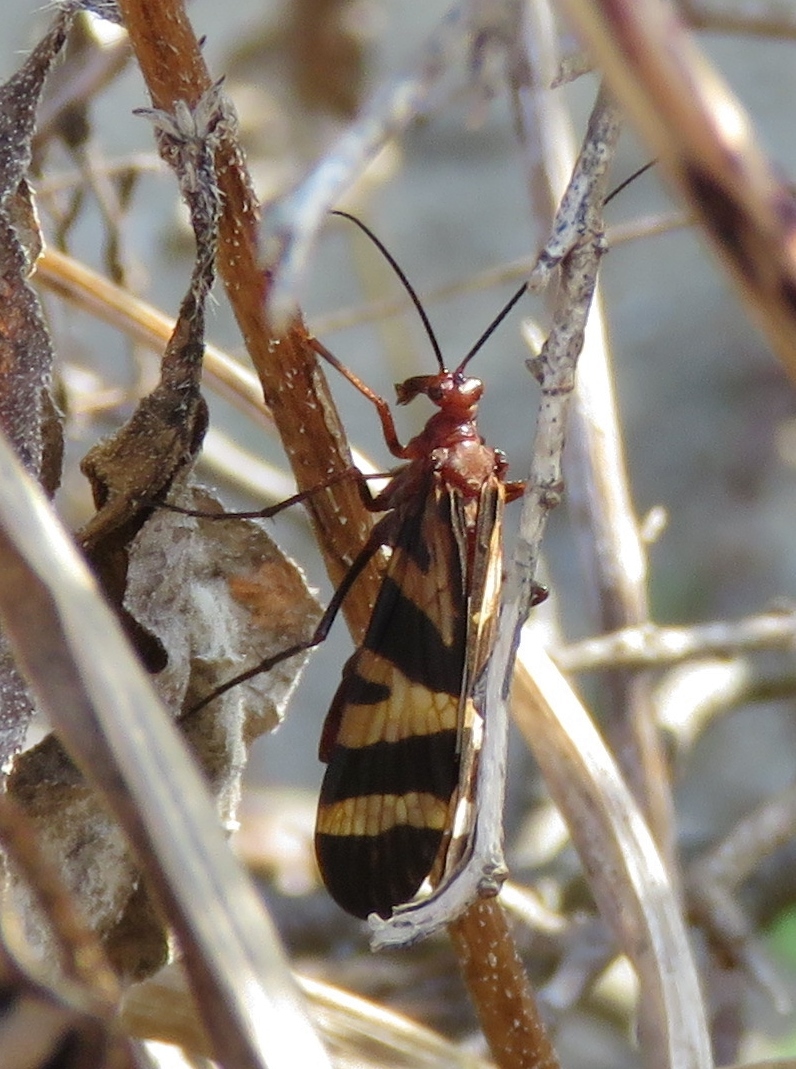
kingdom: Animalia
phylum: Arthropoda
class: Insecta
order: Mecoptera
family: Panorpidae
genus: Panorpa
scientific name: Panorpa nuptialis
